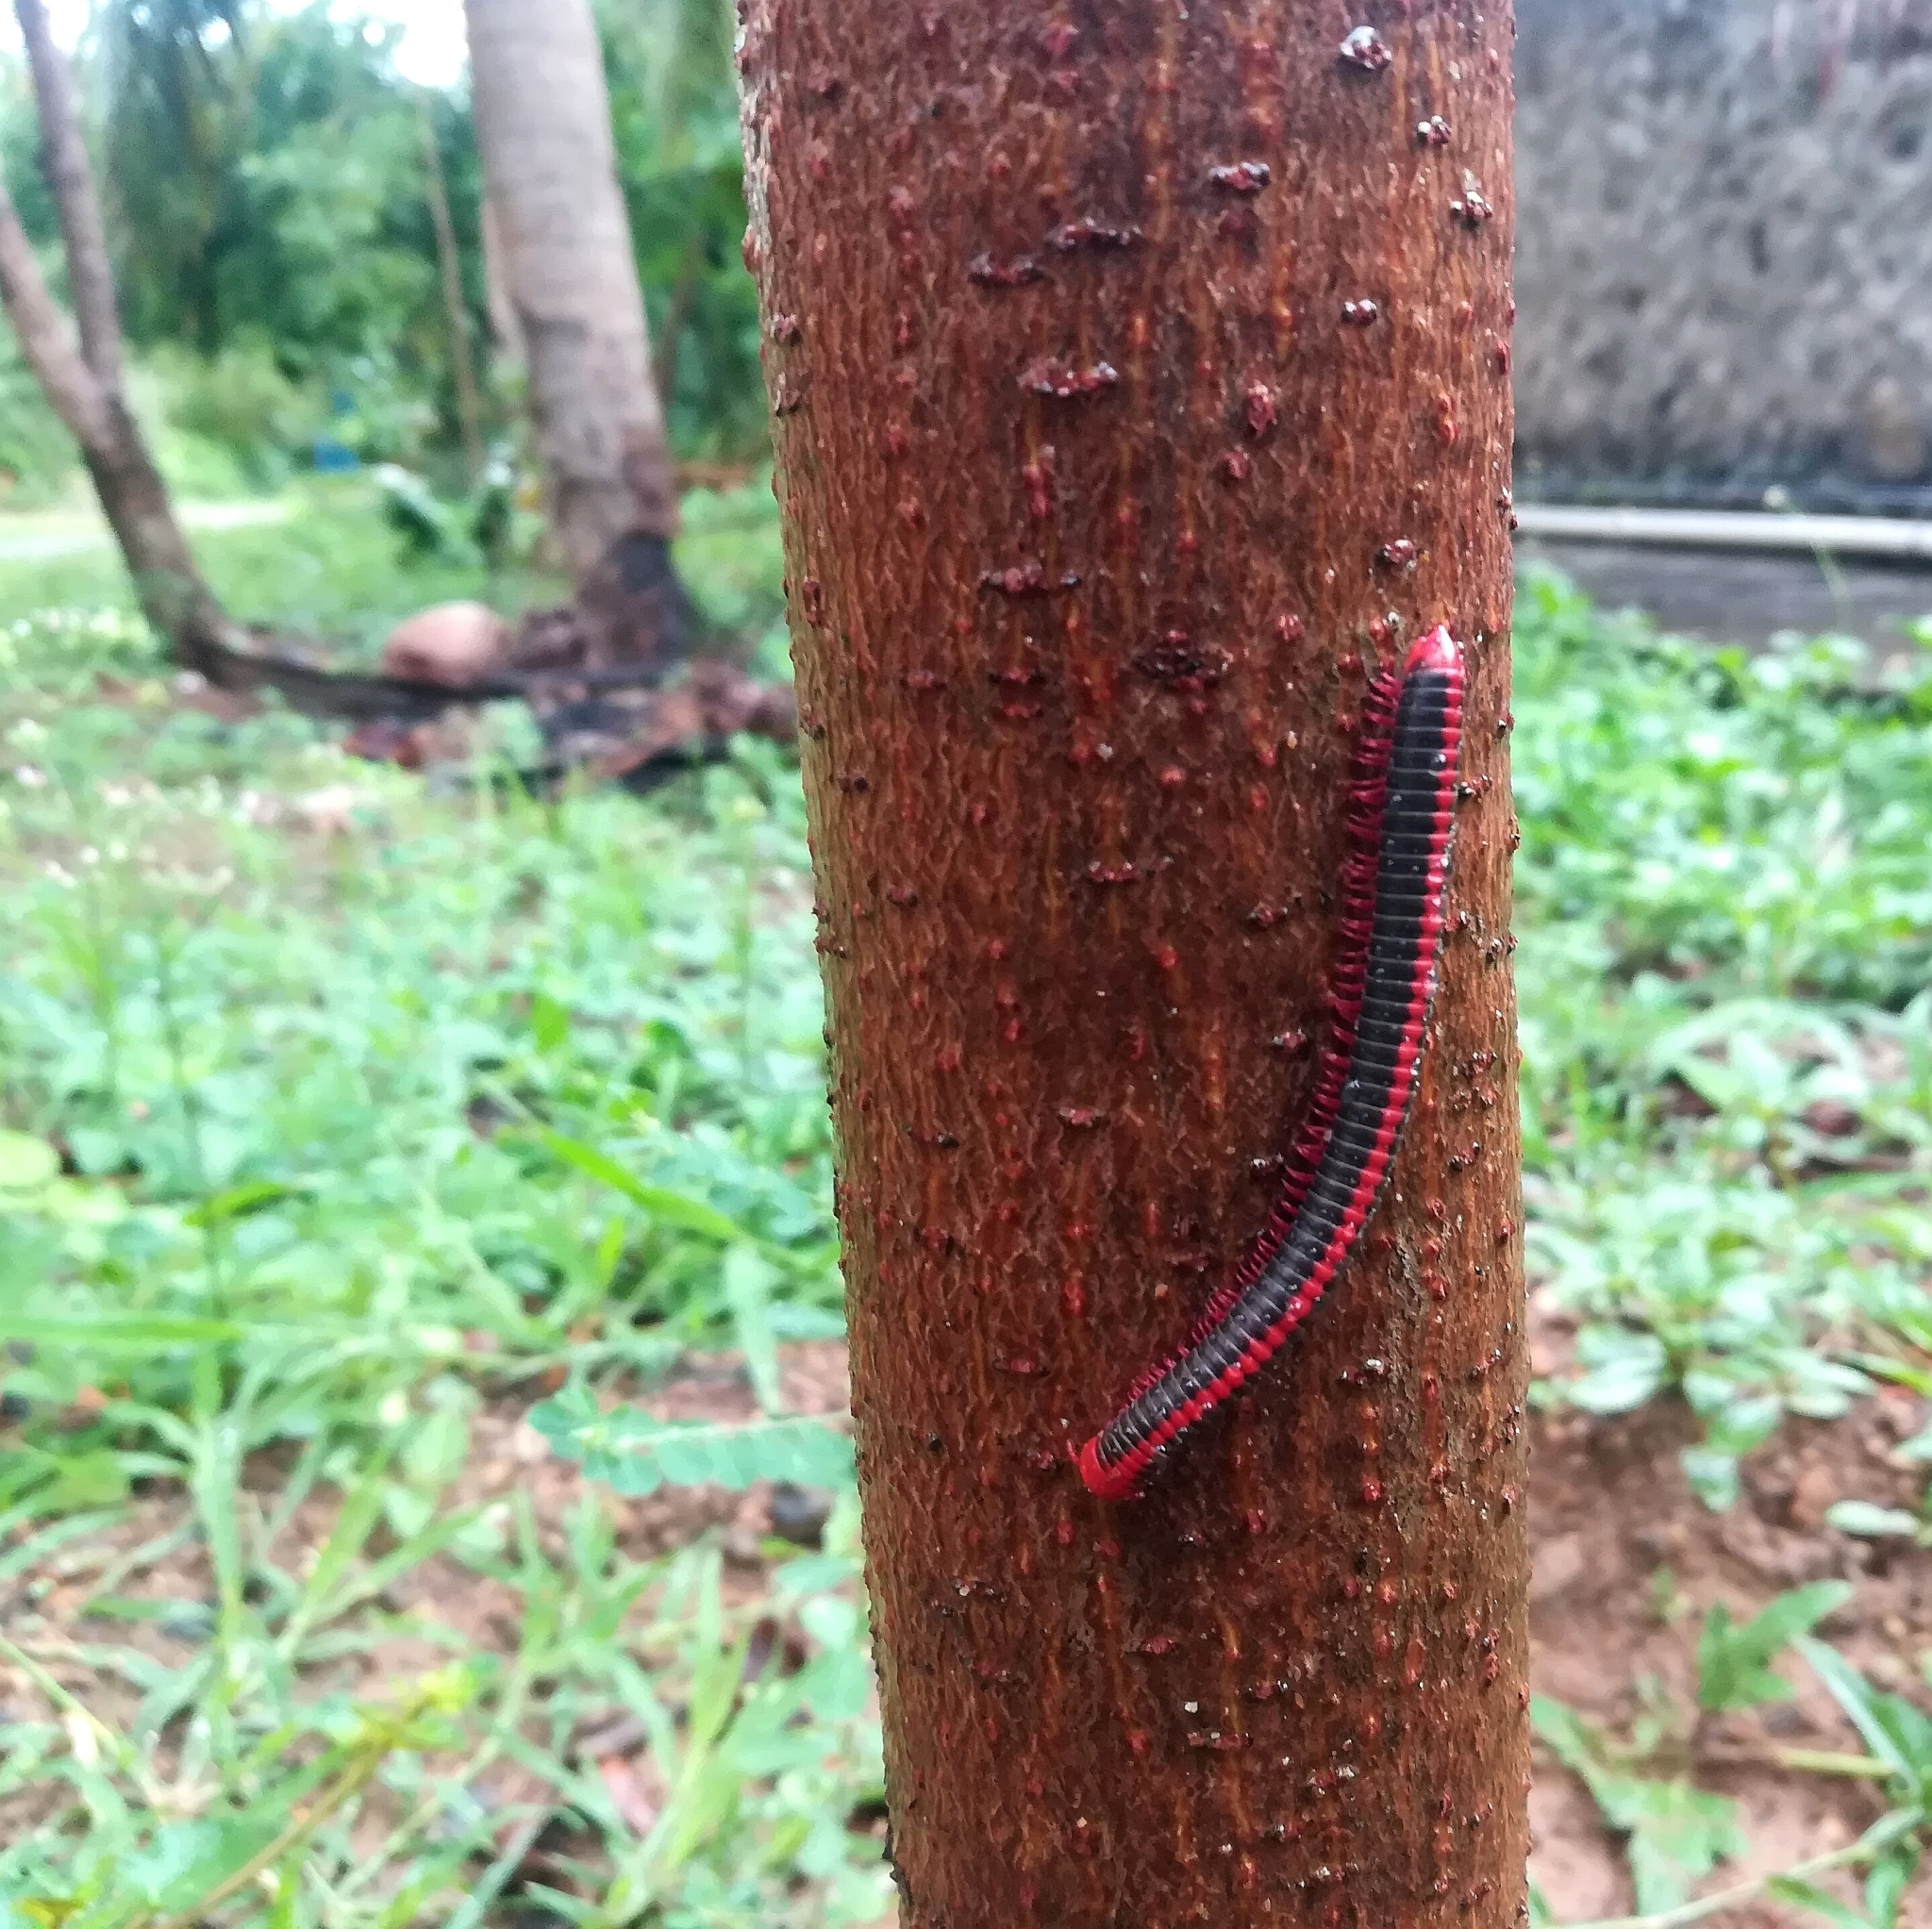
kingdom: Animalia
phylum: Arthropoda
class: Diplopoda
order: Spirobolida
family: Pachybolidae
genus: Xenobolus
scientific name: Xenobolus carnifex
